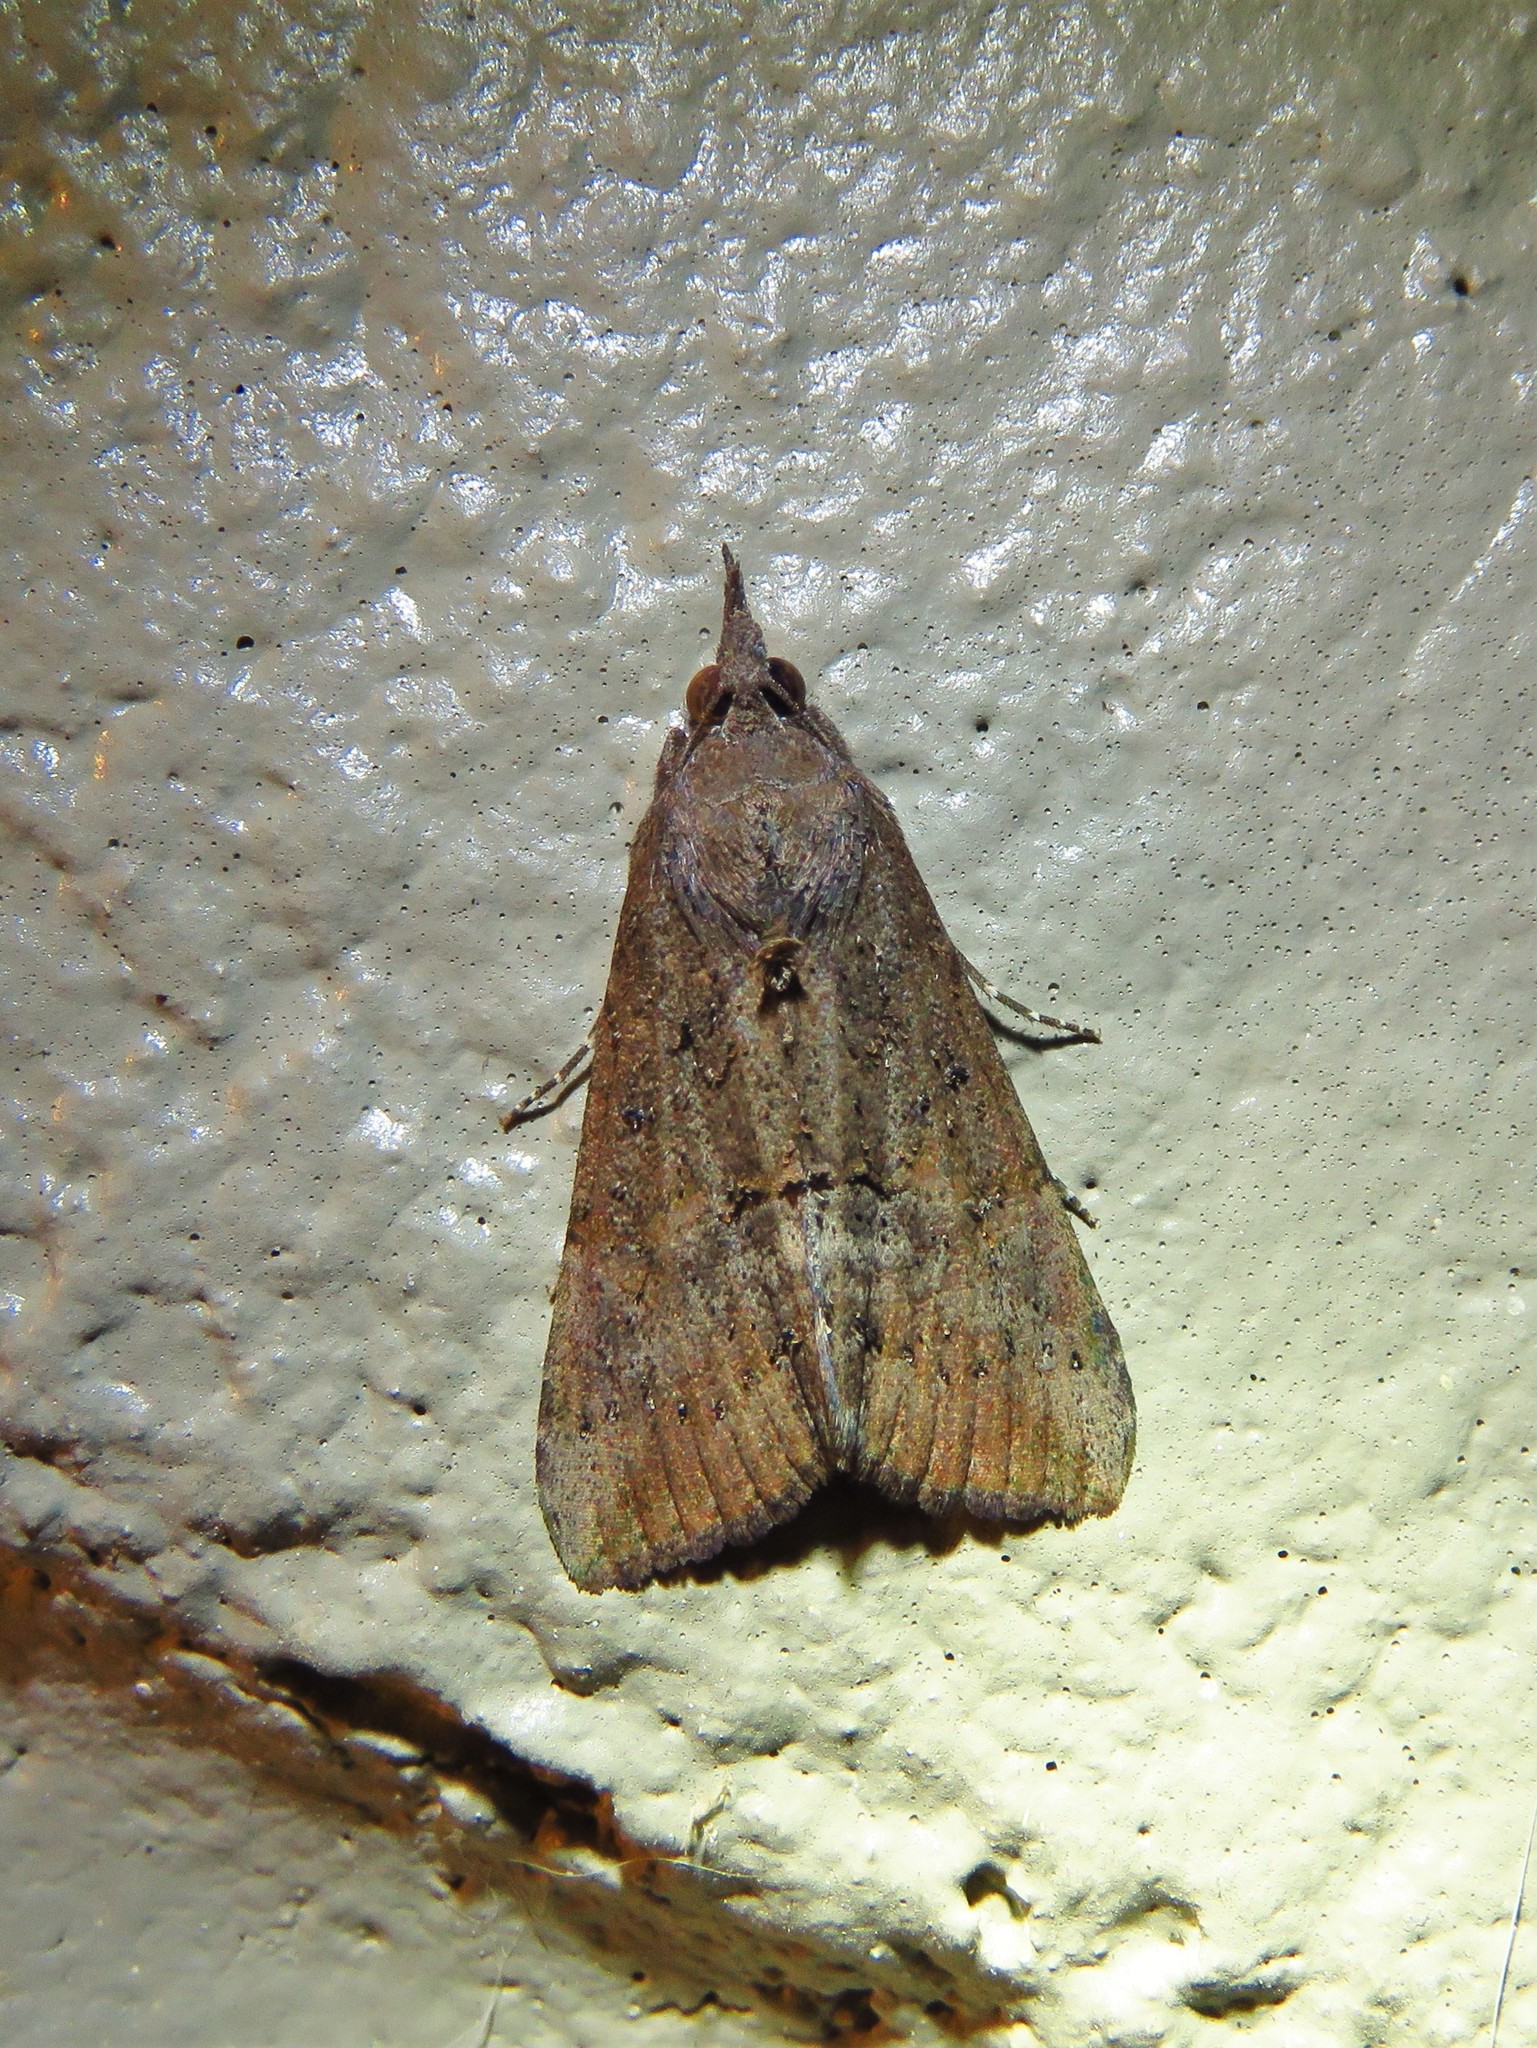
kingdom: Animalia
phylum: Arthropoda
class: Insecta
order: Lepidoptera
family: Erebidae
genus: Hypena
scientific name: Hypena scabra
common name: Green cloverworm
